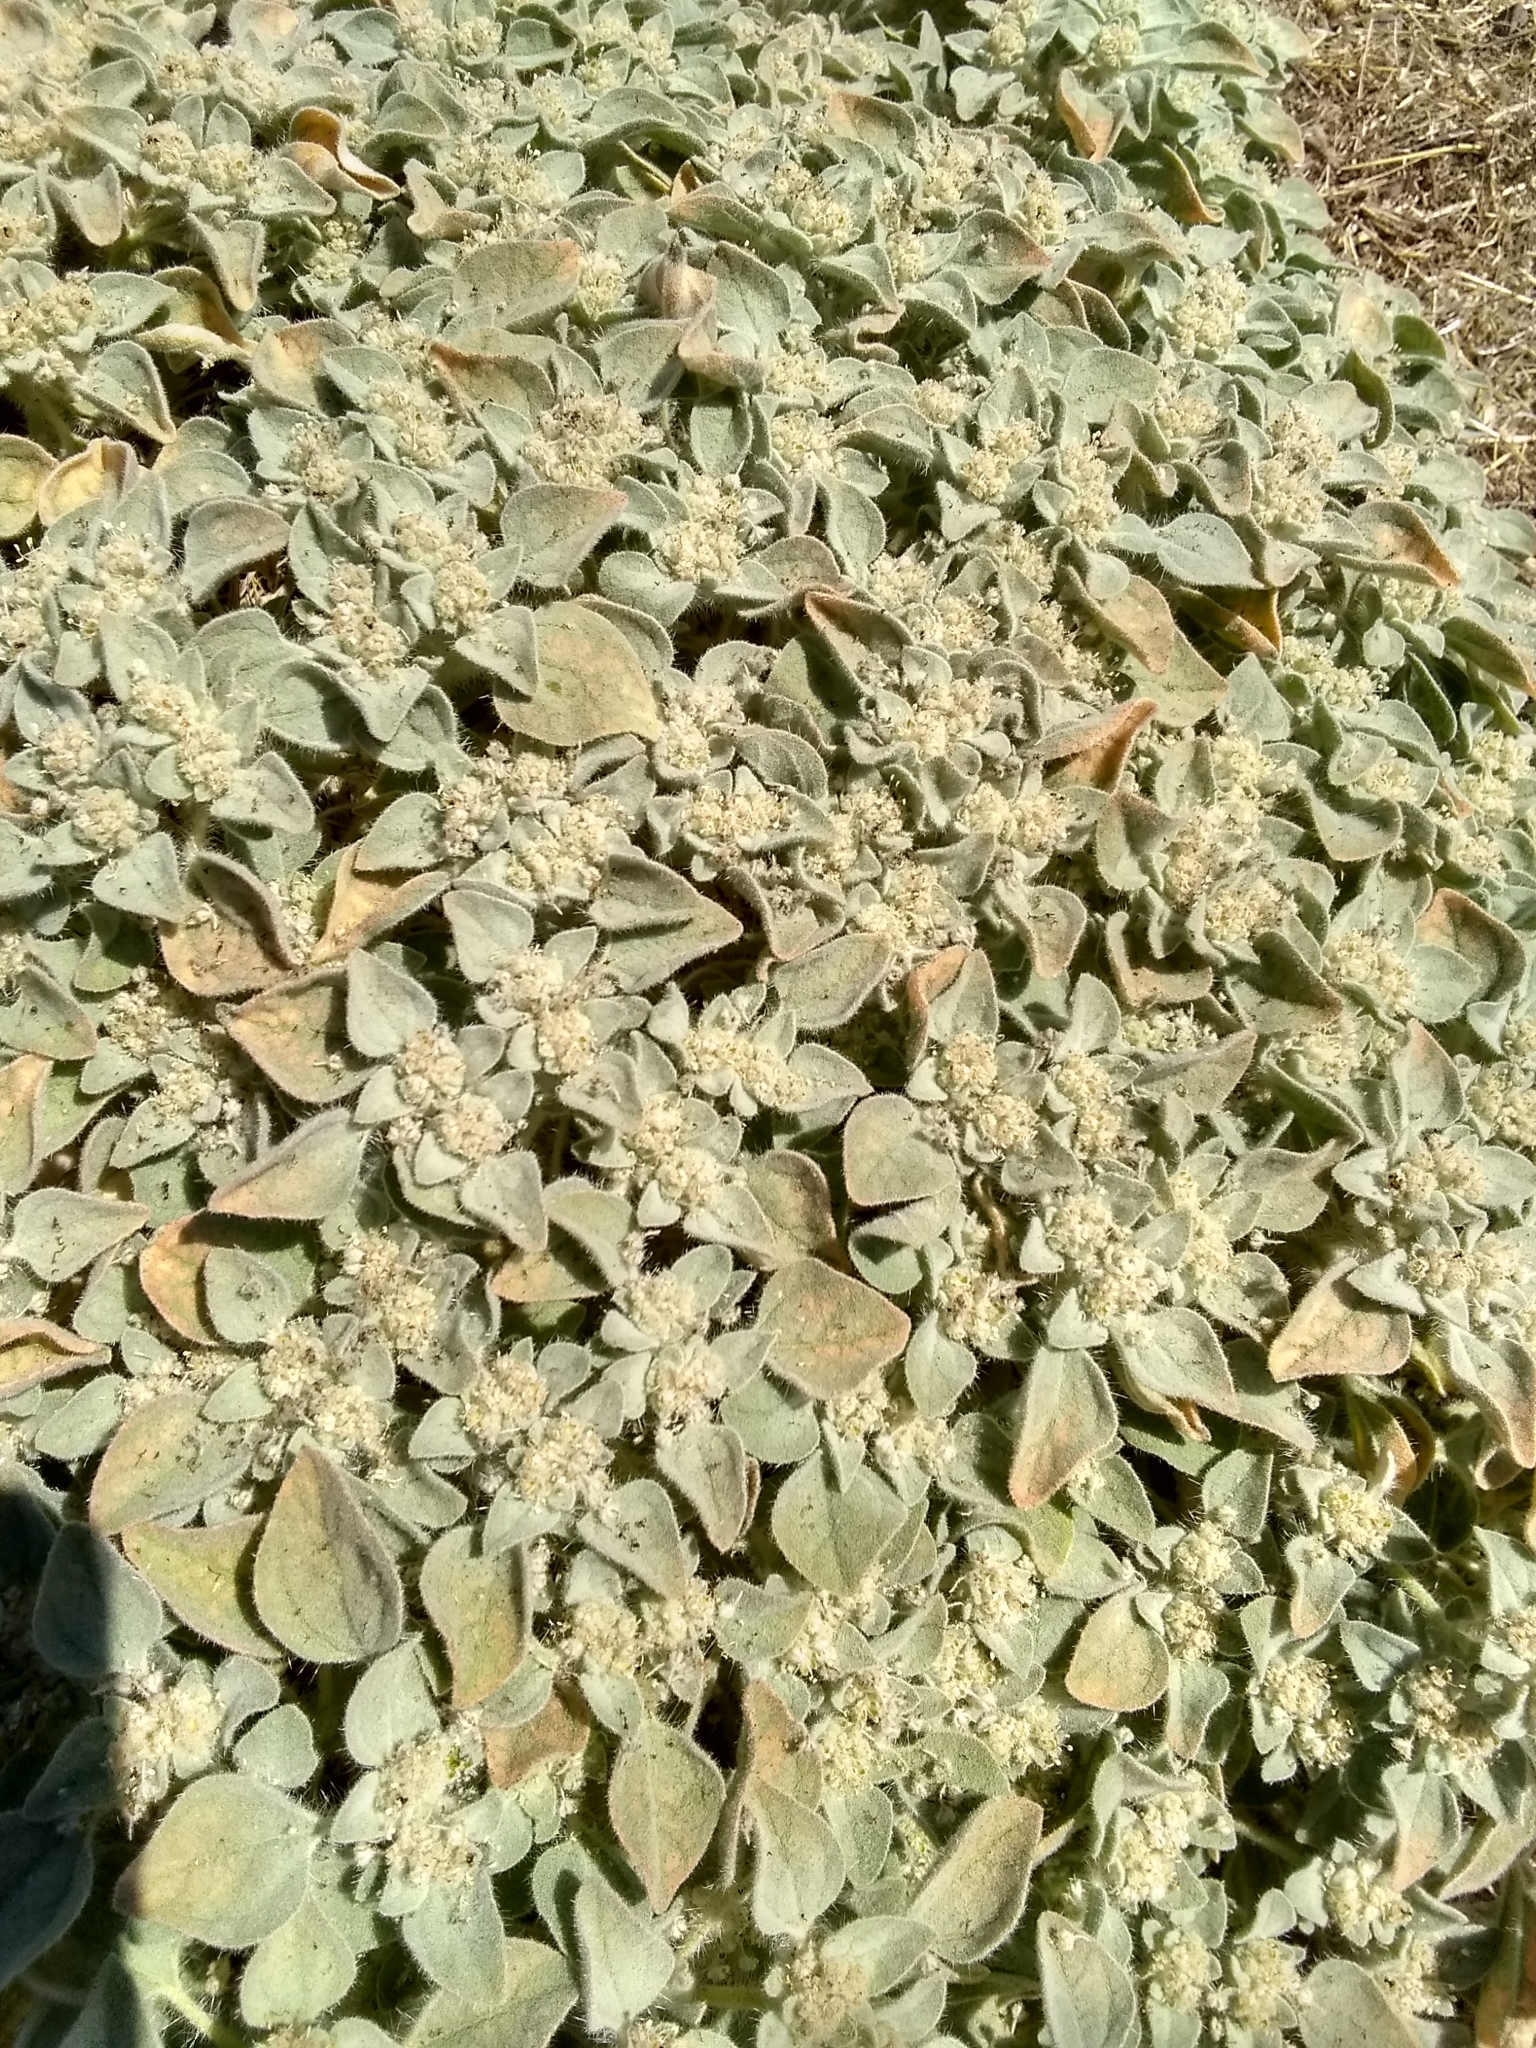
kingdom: Plantae
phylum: Tracheophyta
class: Magnoliopsida
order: Malpighiales
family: Euphorbiaceae
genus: Croton
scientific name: Croton setiger
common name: Dove weed
